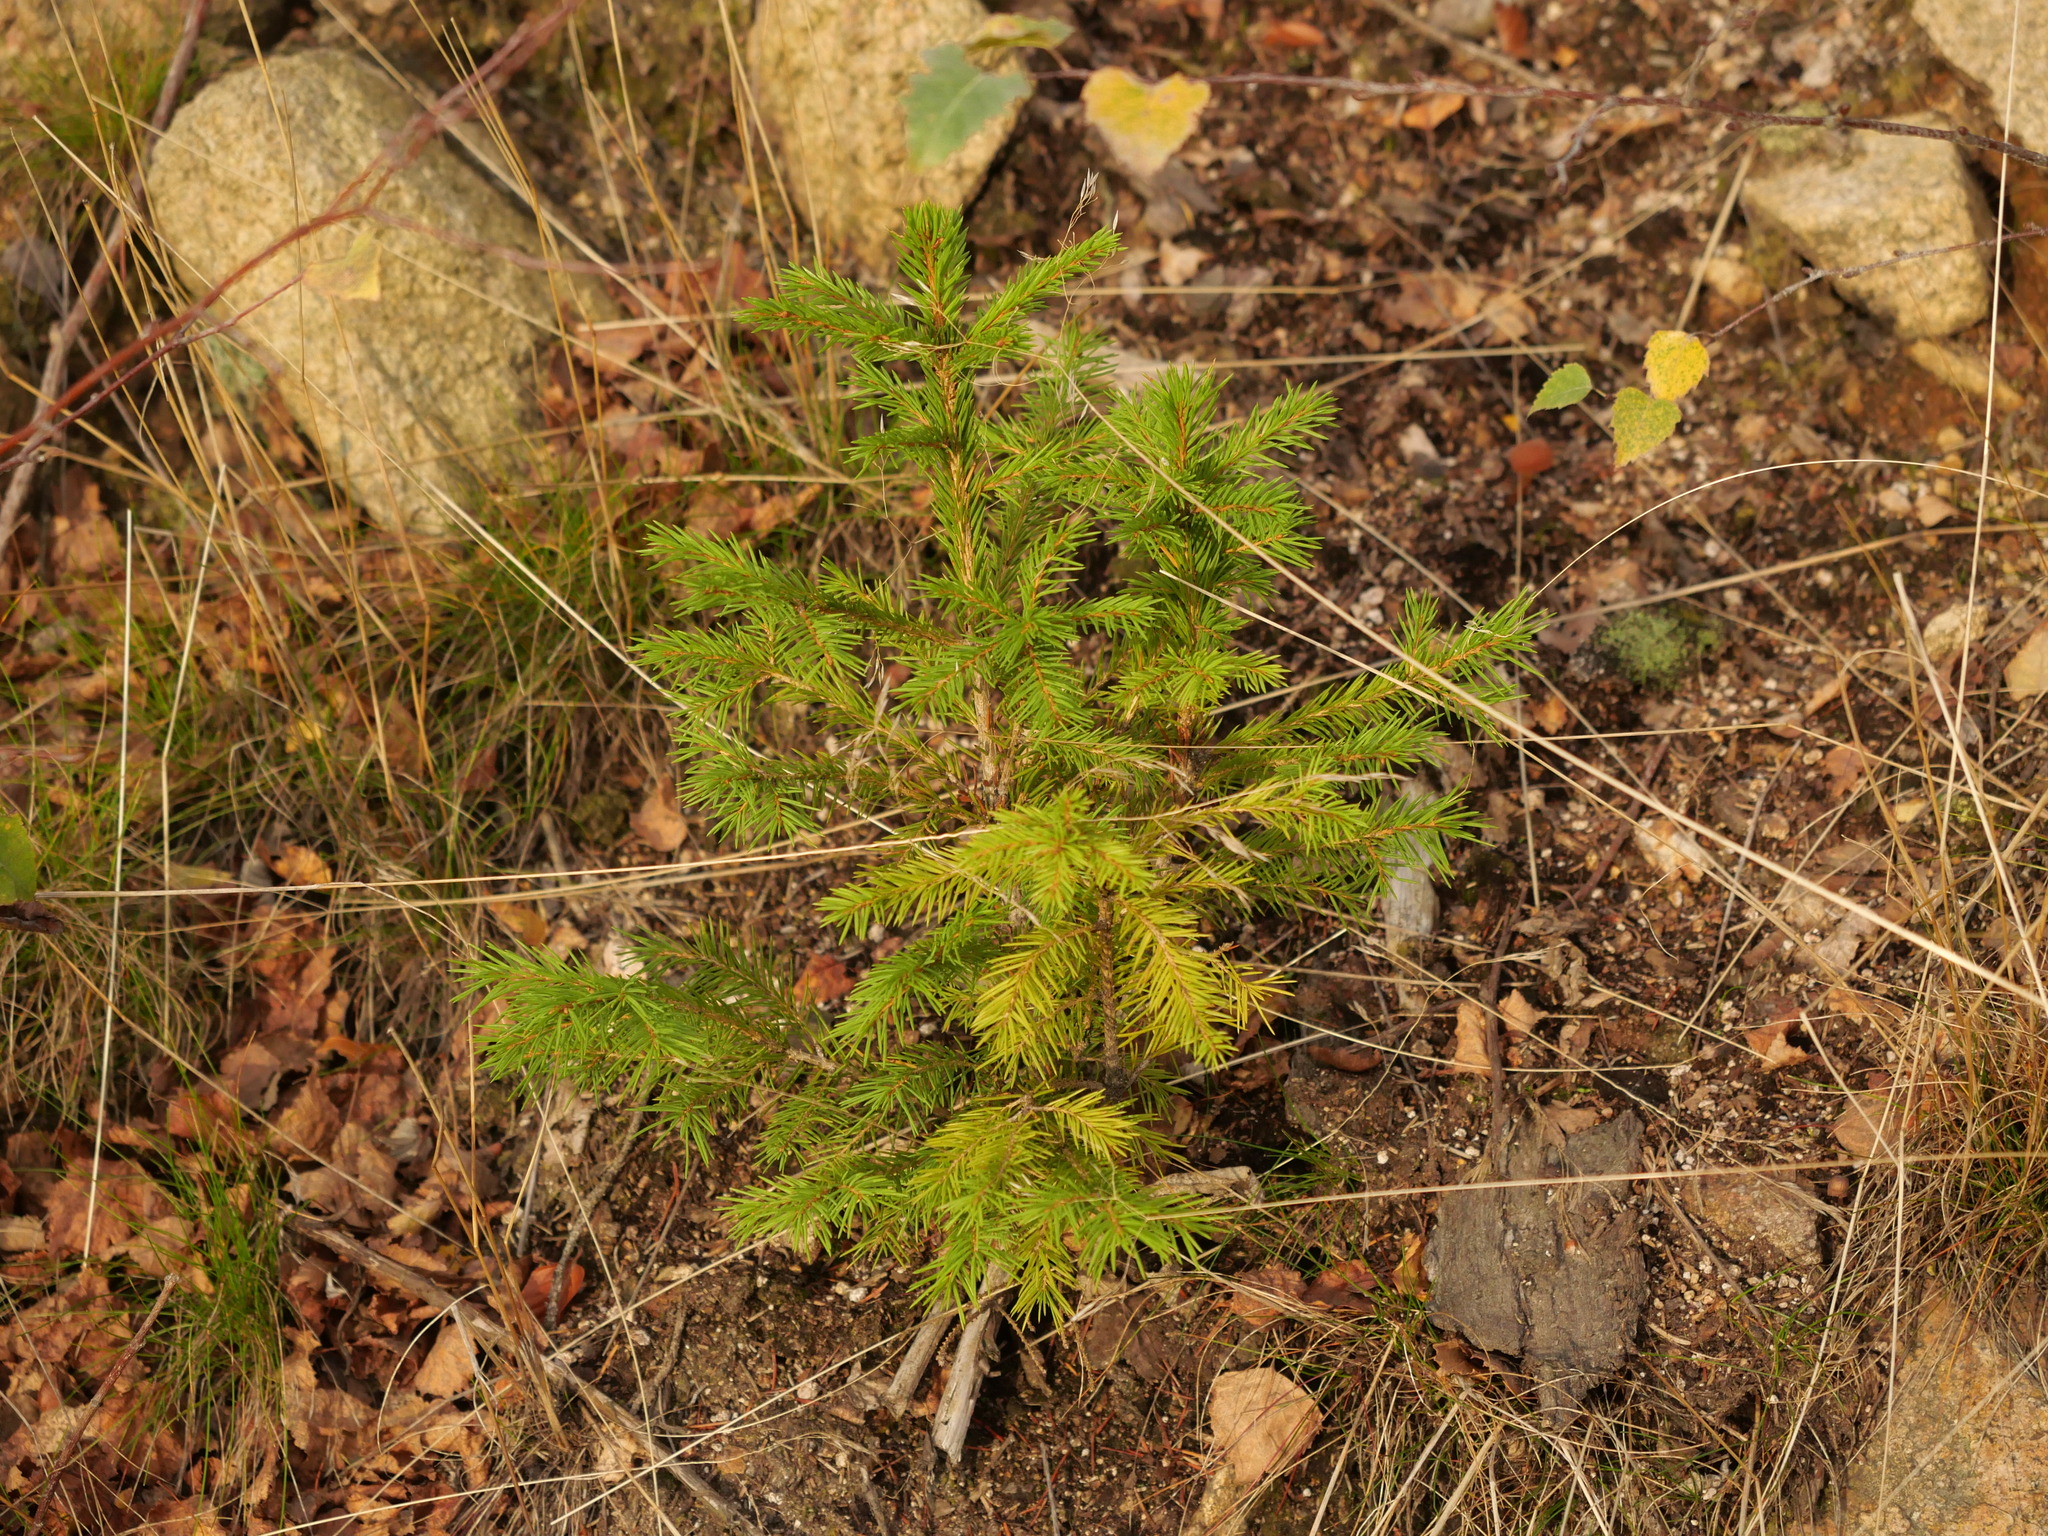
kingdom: Plantae
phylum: Tracheophyta
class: Pinopsida
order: Pinales
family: Pinaceae
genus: Picea
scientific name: Picea abies
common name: Norway spruce
